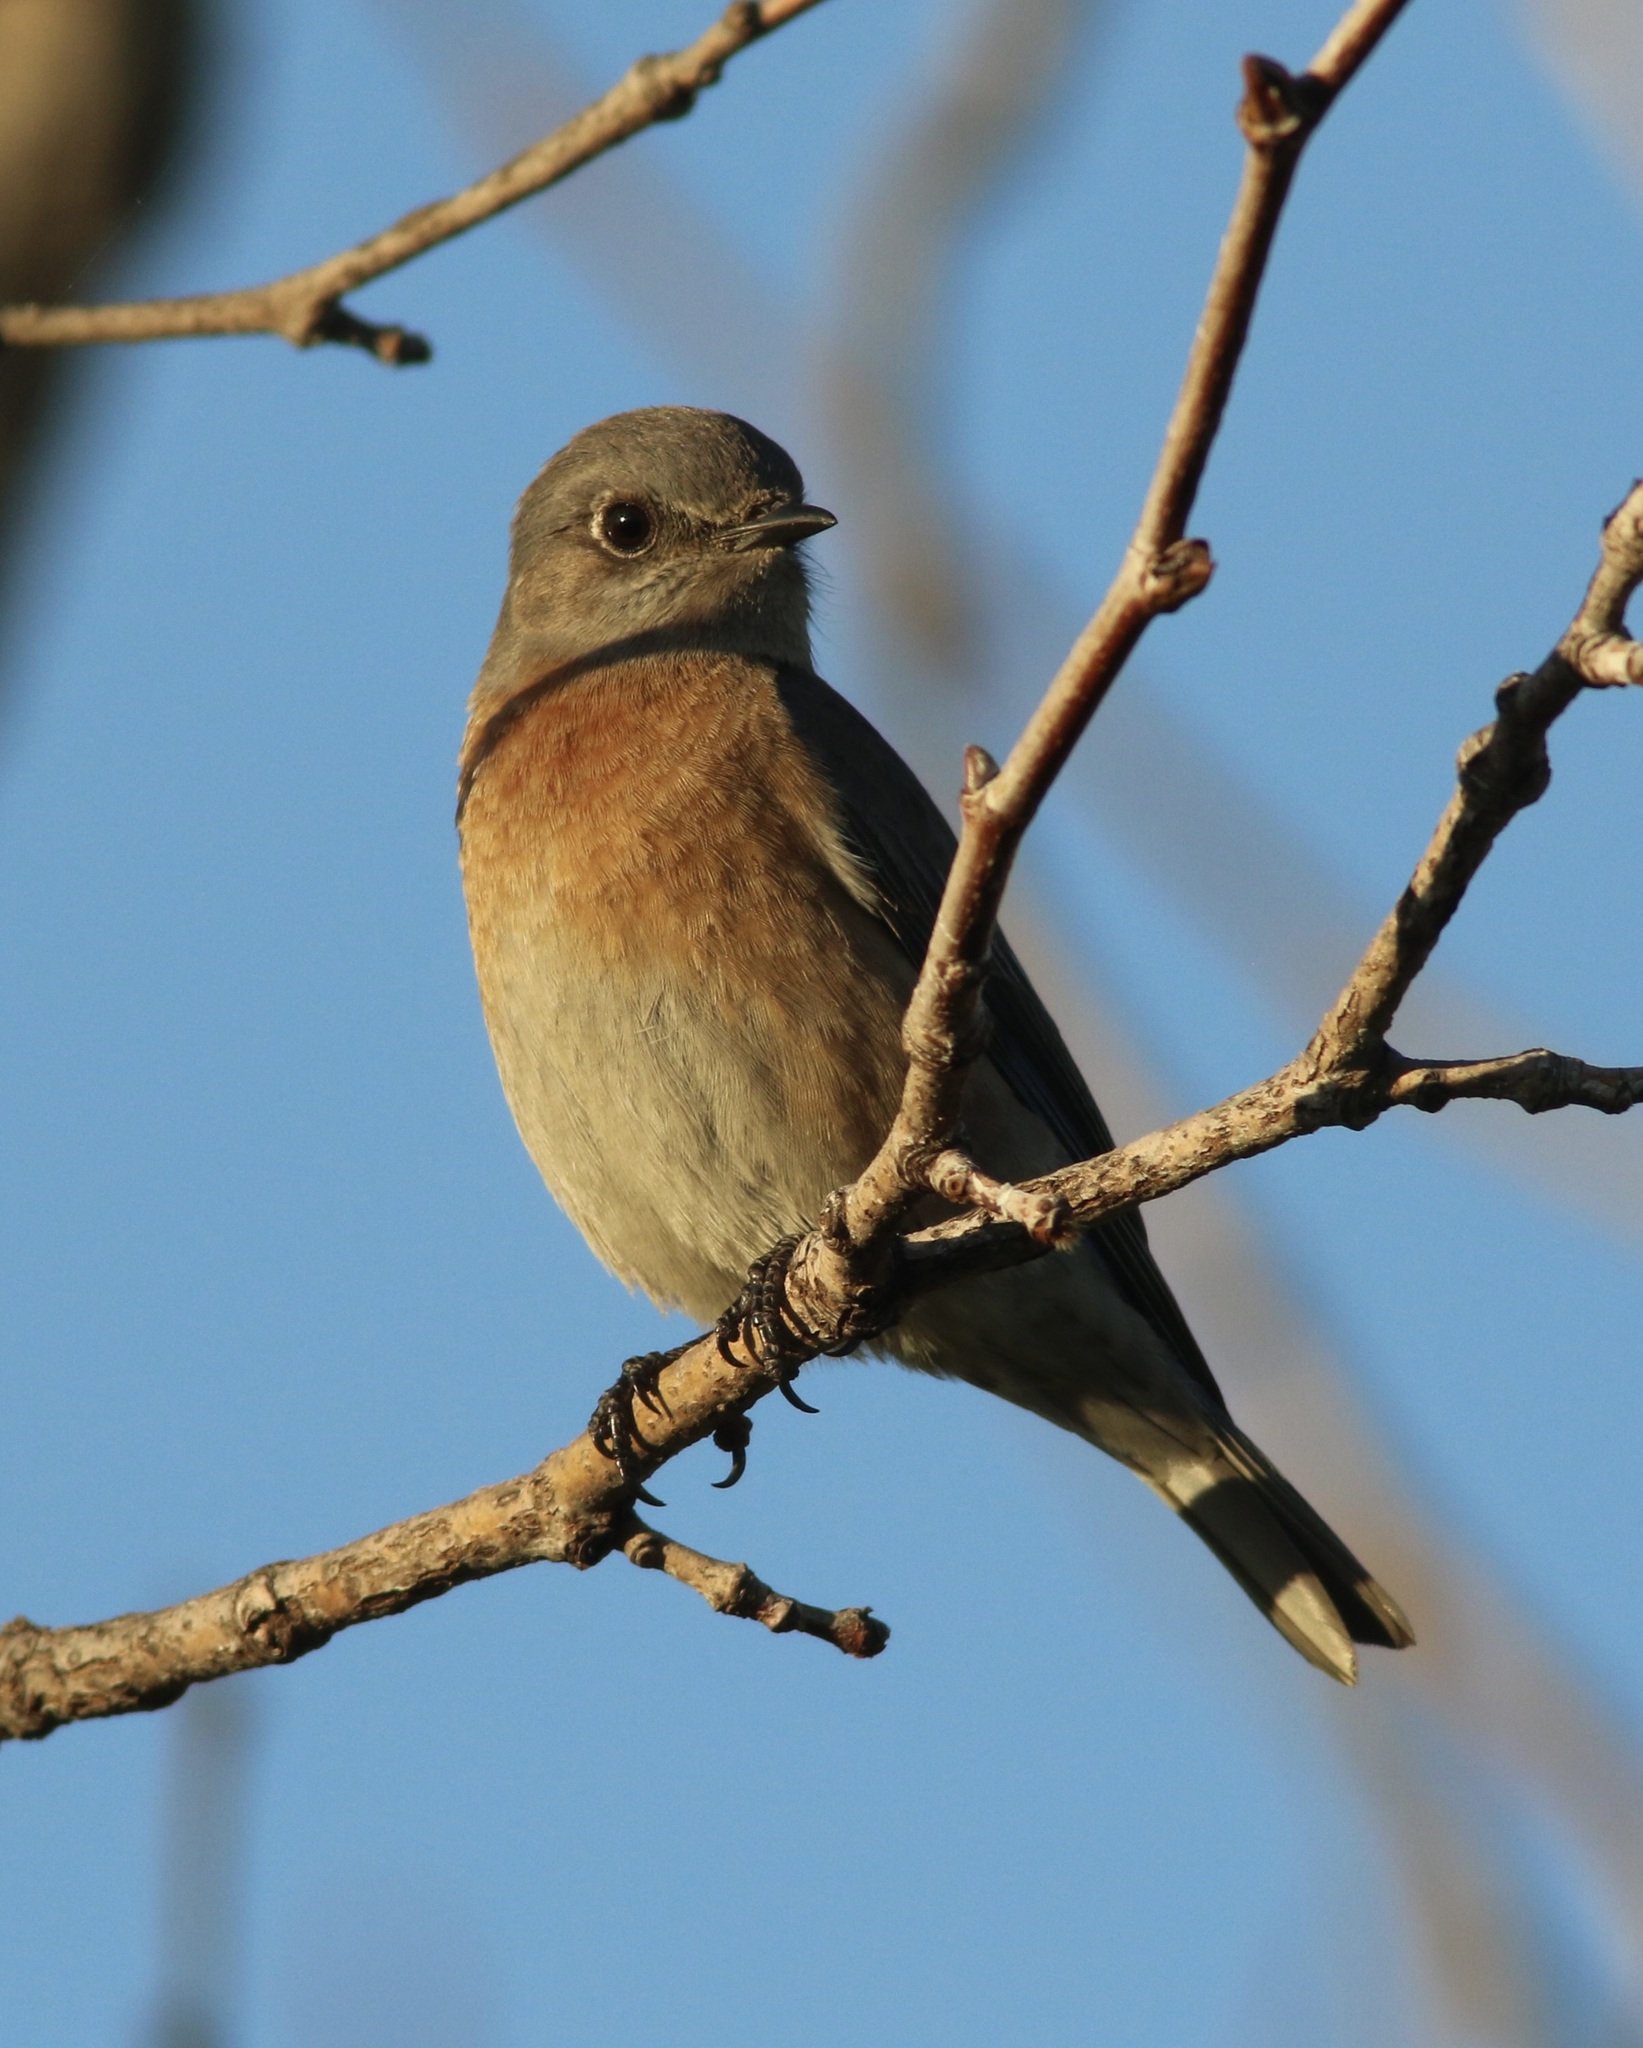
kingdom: Animalia
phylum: Chordata
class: Aves
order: Passeriformes
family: Turdidae
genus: Sialia
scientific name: Sialia mexicana
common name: Western bluebird
